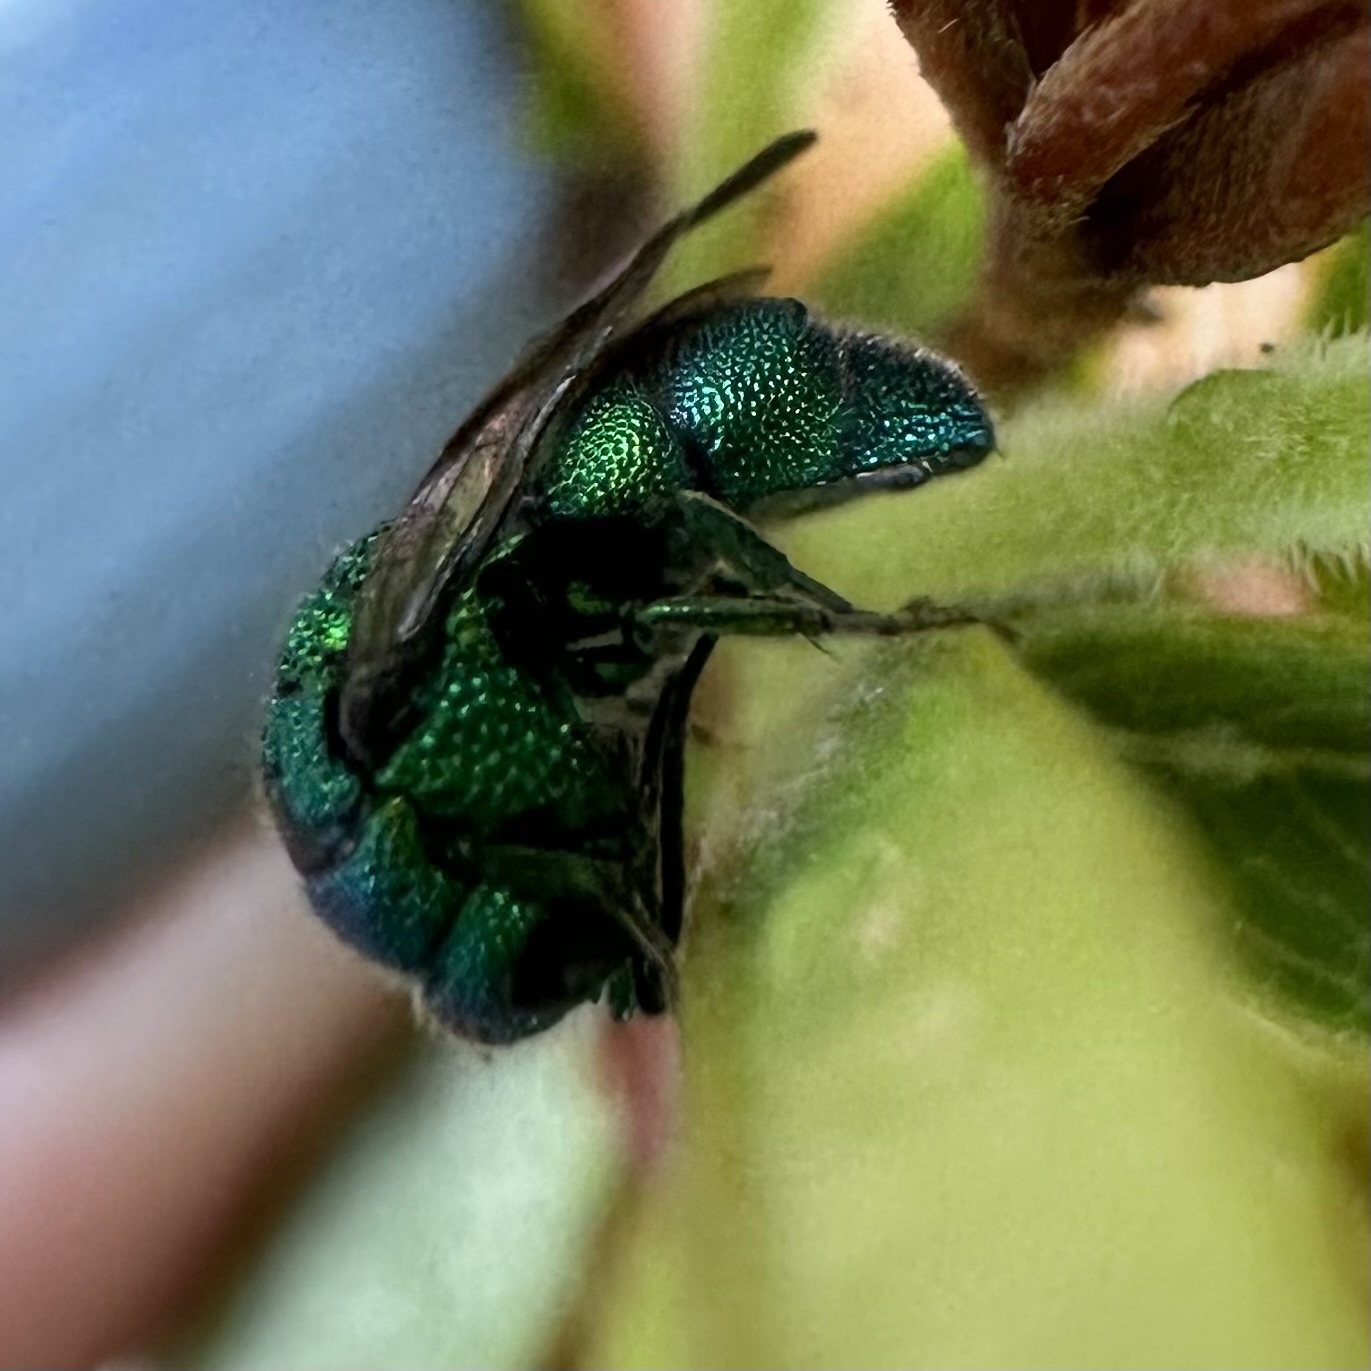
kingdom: Animalia
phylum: Arthropoda
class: Insecta
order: Hymenoptera
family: Chrysididae
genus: Holopyga
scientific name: Holopyga
